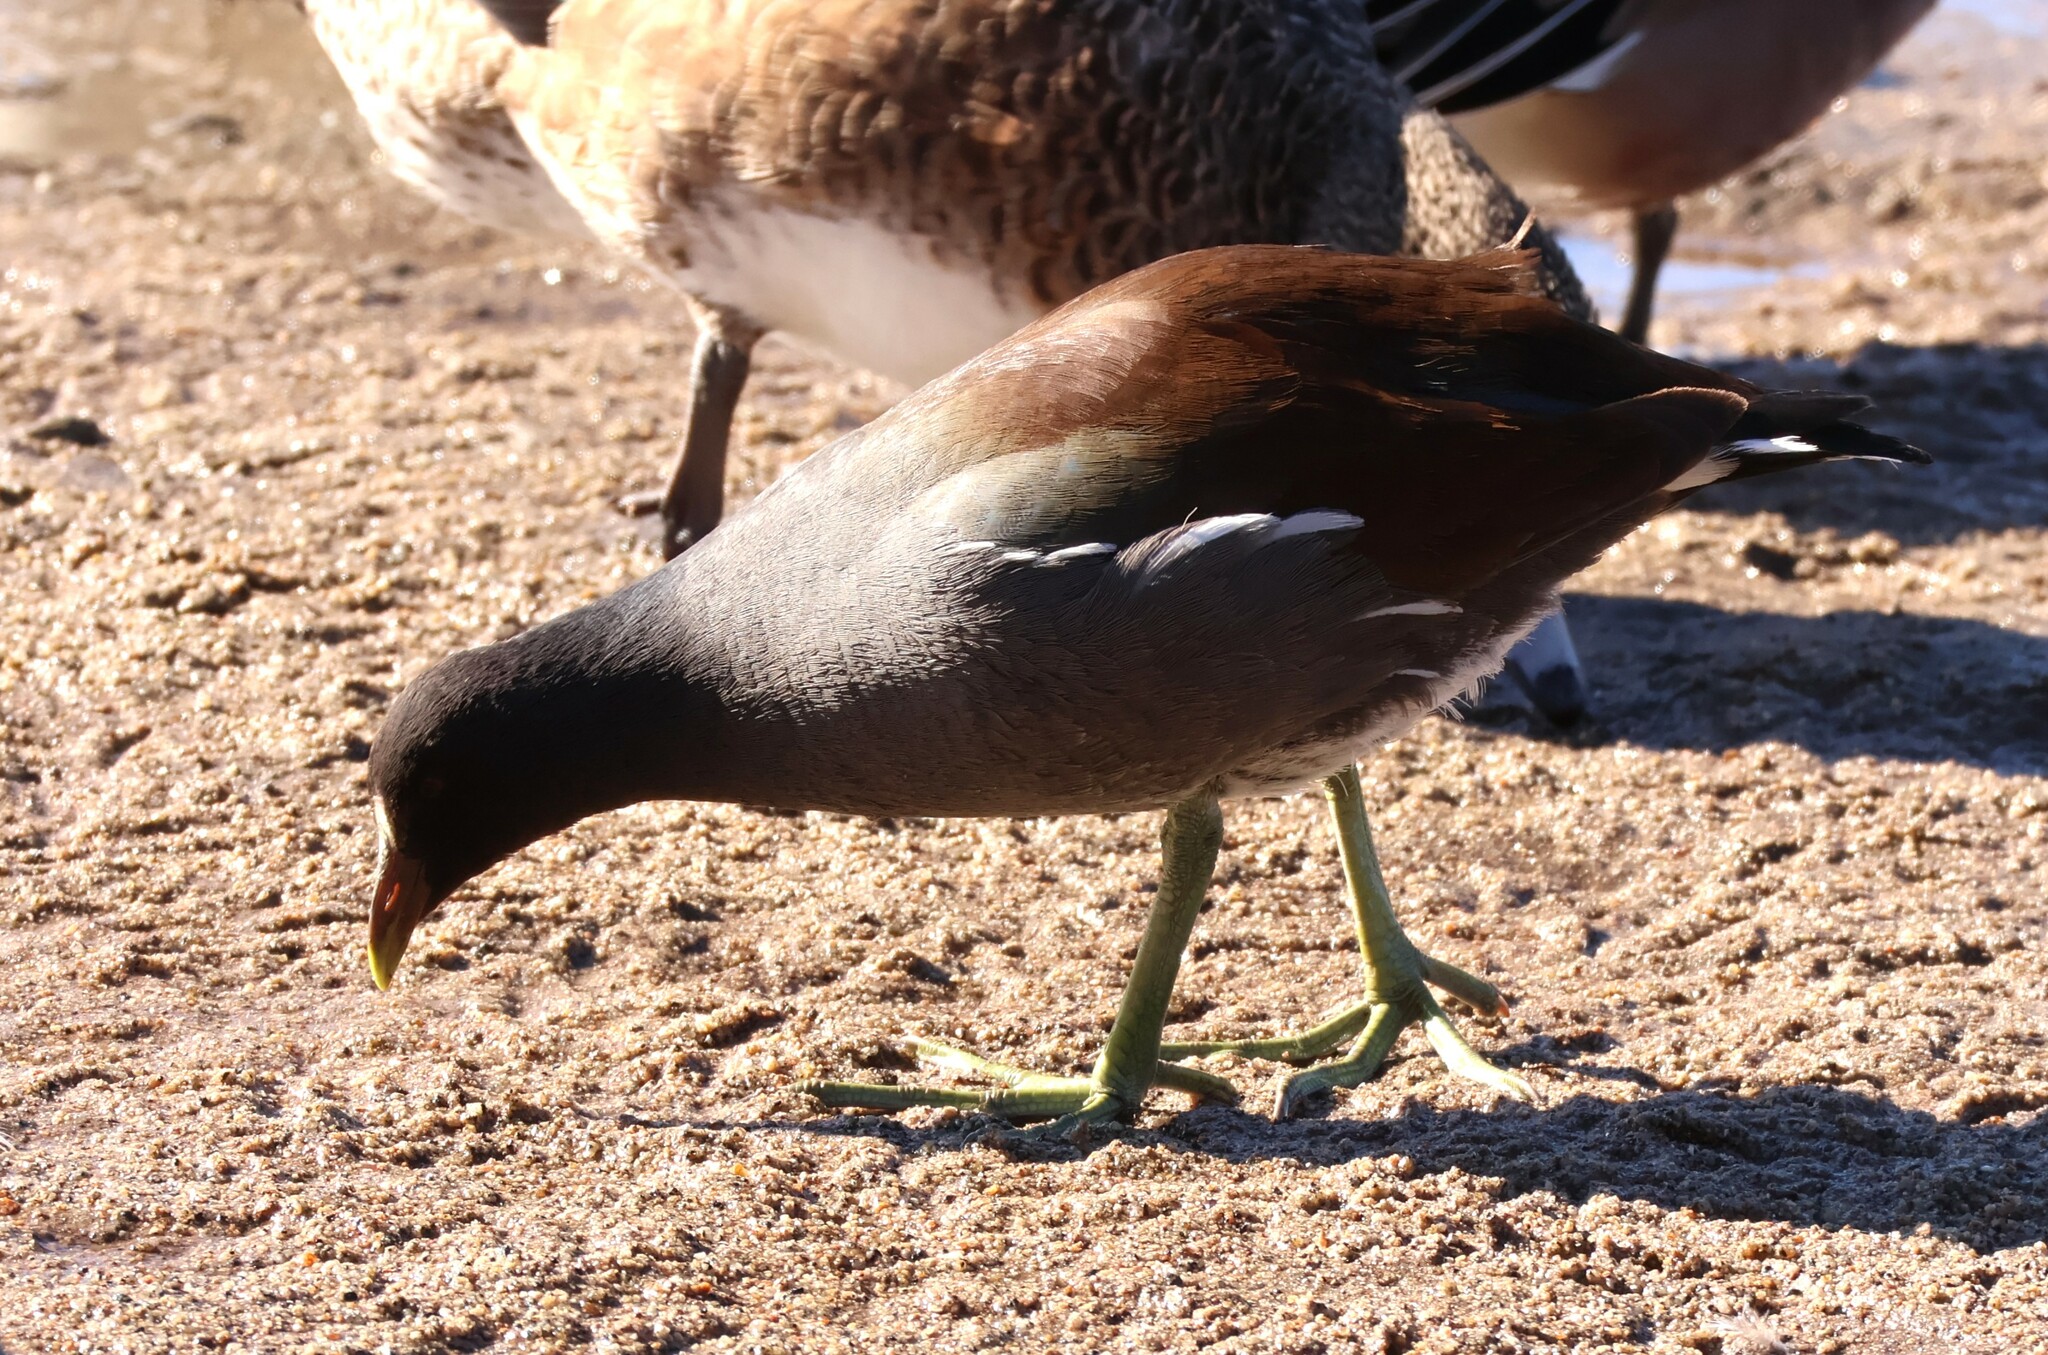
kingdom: Animalia
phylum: Chordata
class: Aves
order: Gruiformes
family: Rallidae
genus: Gallinula
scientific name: Gallinula chloropus
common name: Common moorhen
